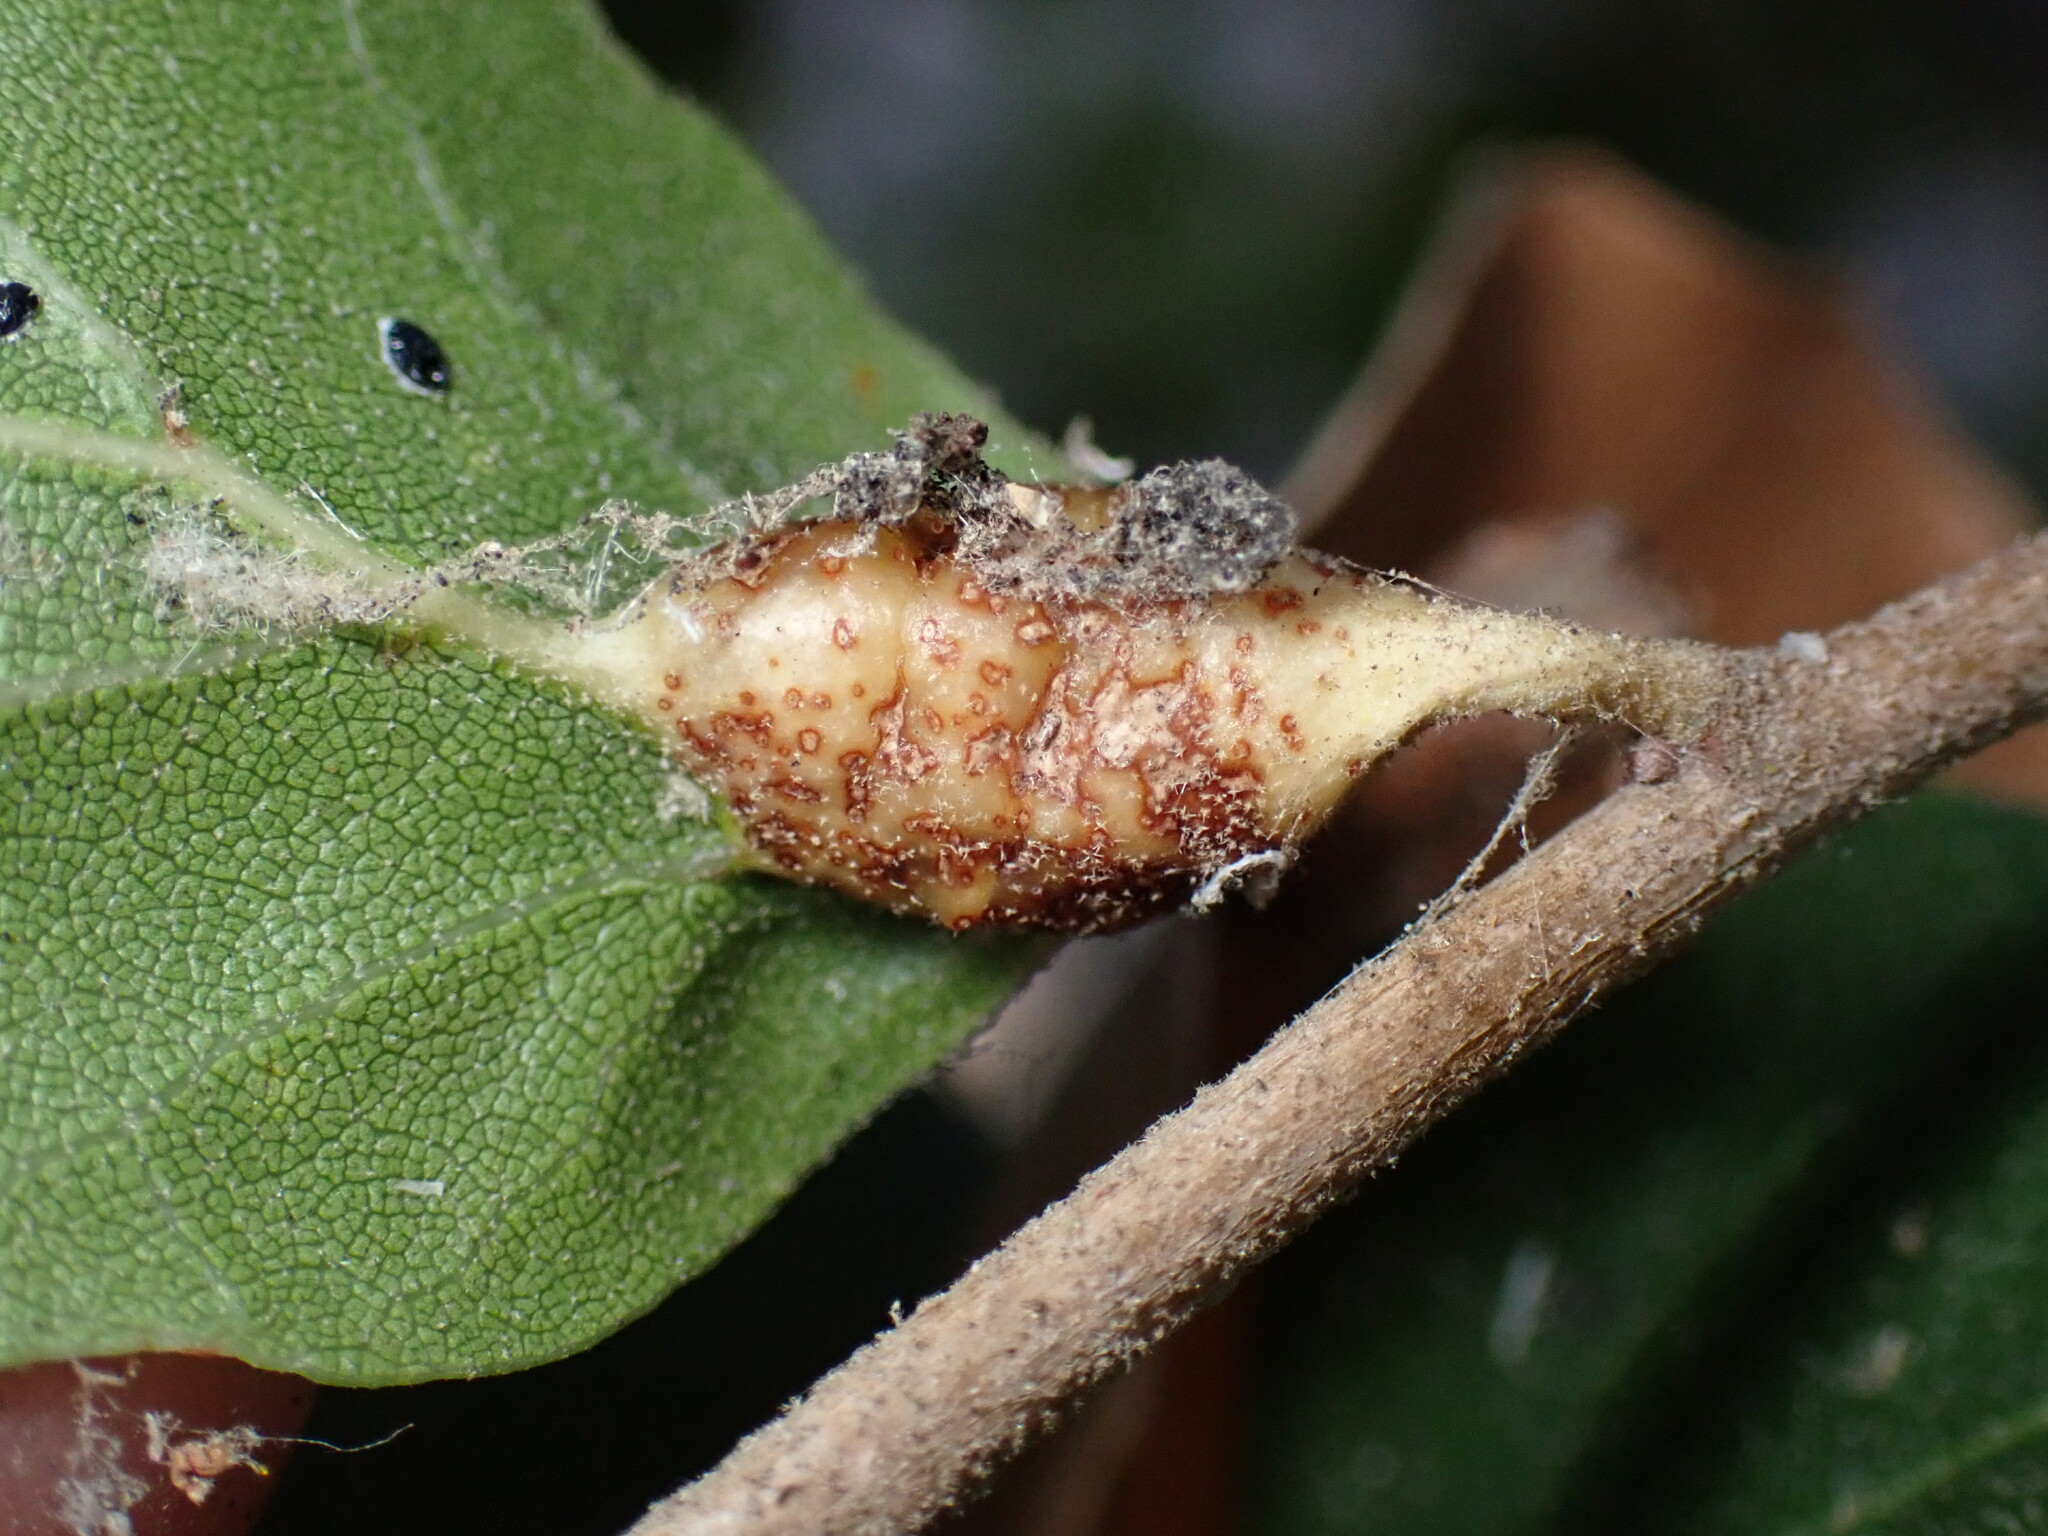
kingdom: Animalia
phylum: Arthropoda
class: Insecta
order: Hymenoptera
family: Cynipidae
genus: Melikaiella
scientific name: Melikaiella
